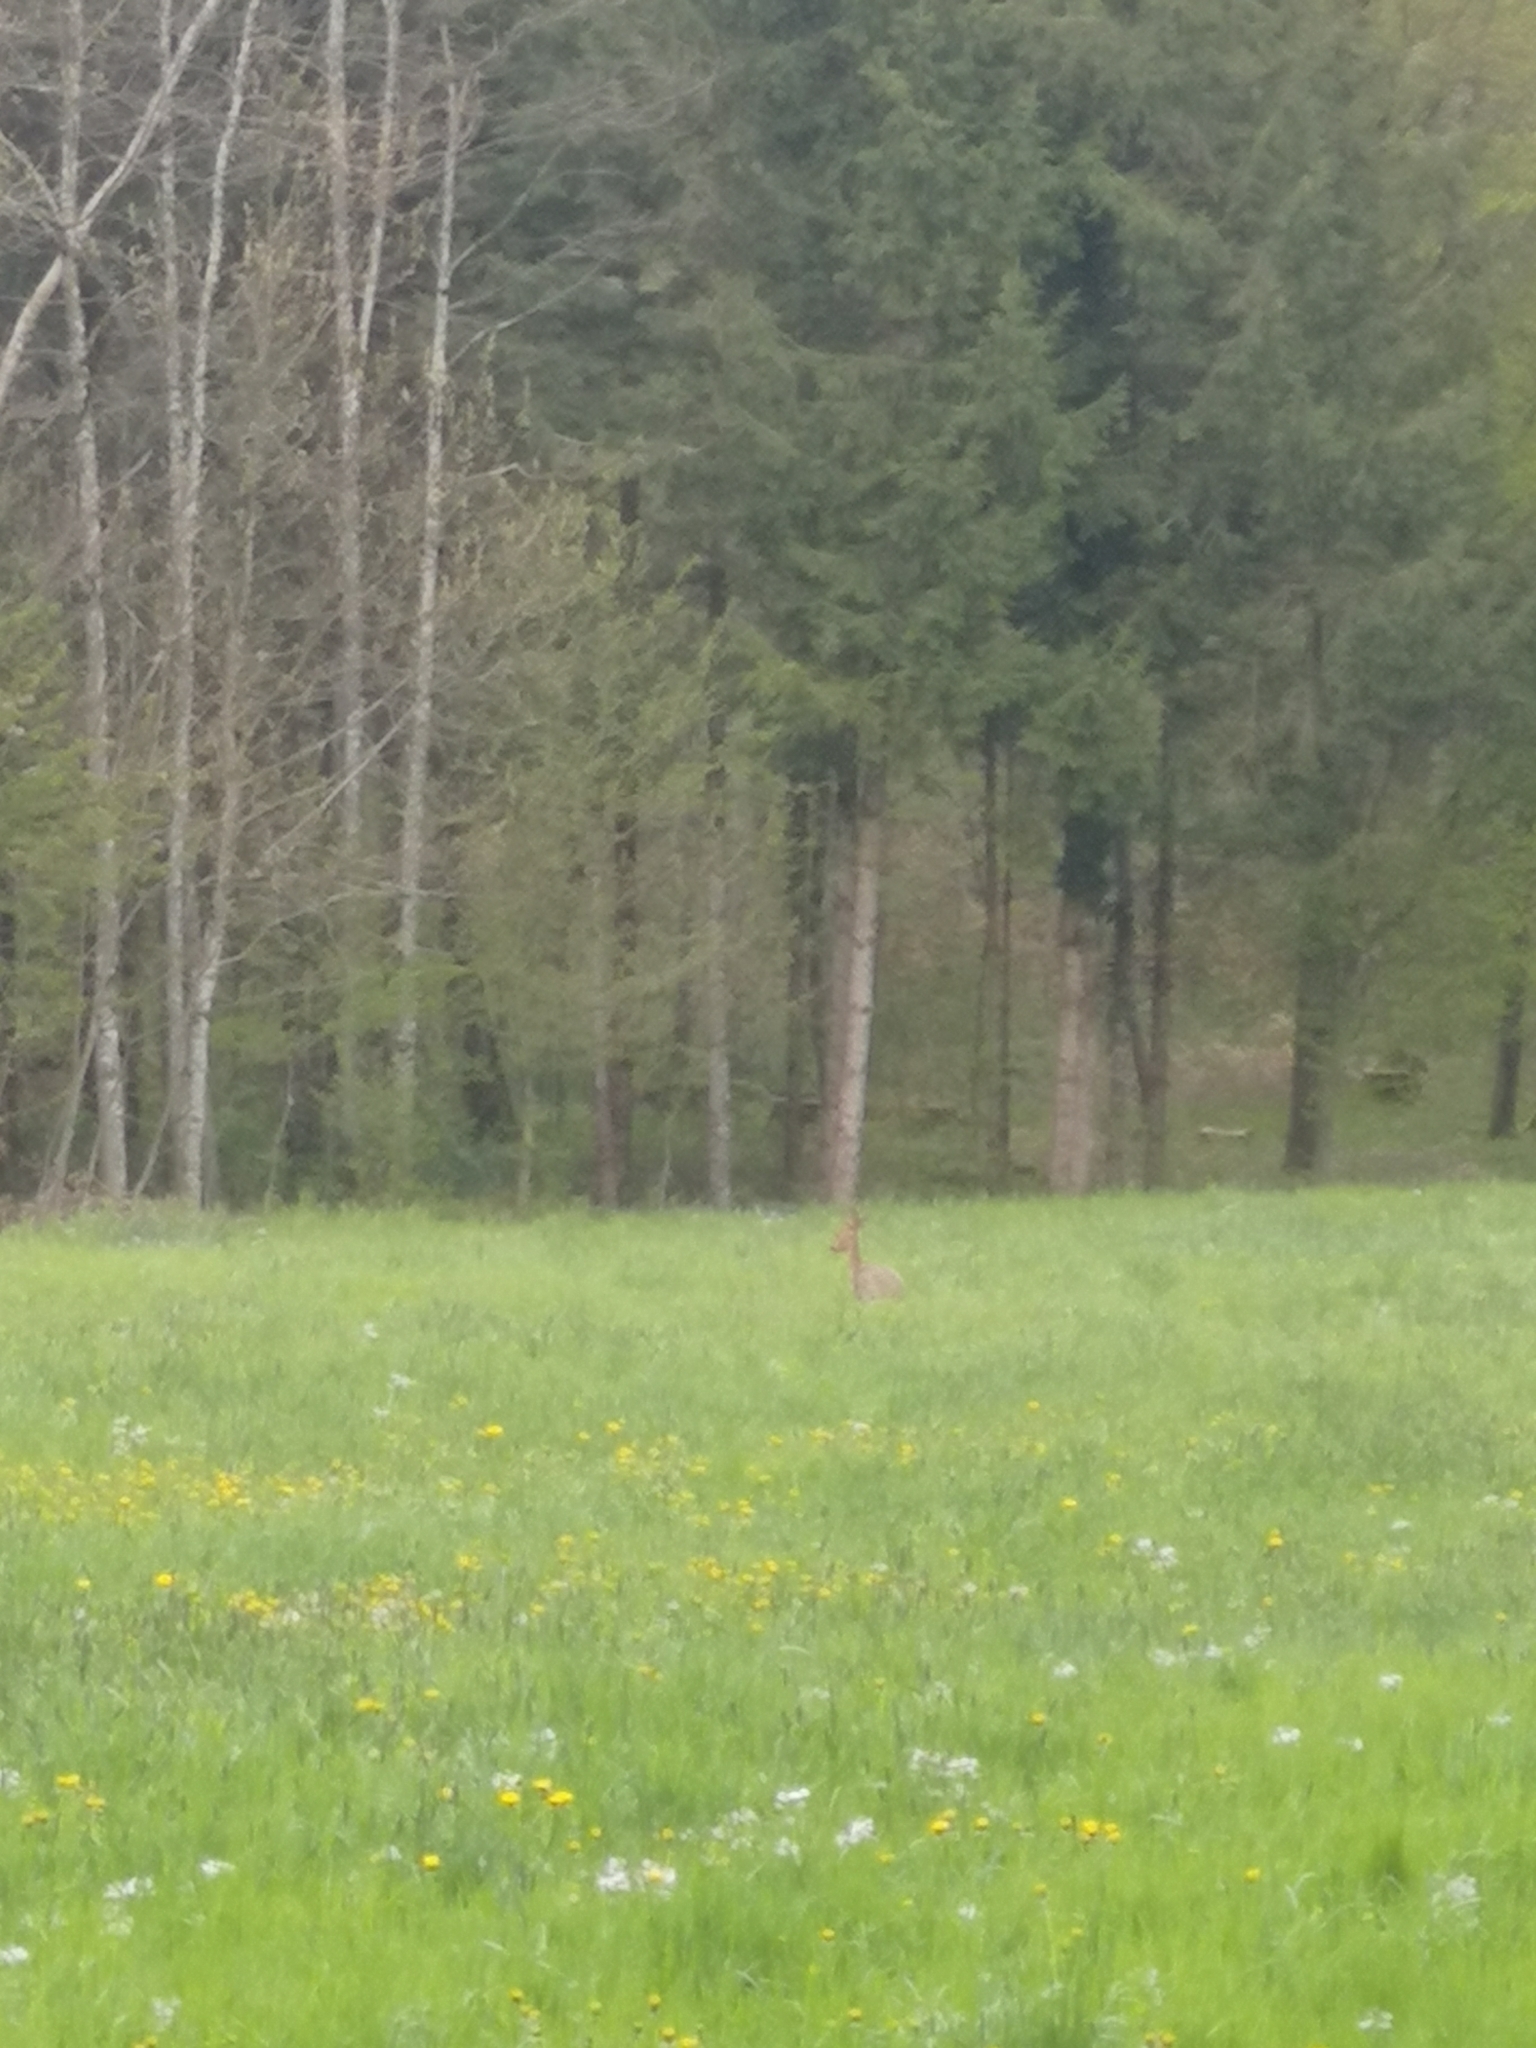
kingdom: Animalia
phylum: Chordata
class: Mammalia
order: Artiodactyla
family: Cervidae
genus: Capreolus
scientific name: Capreolus capreolus
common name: Western roe deer
